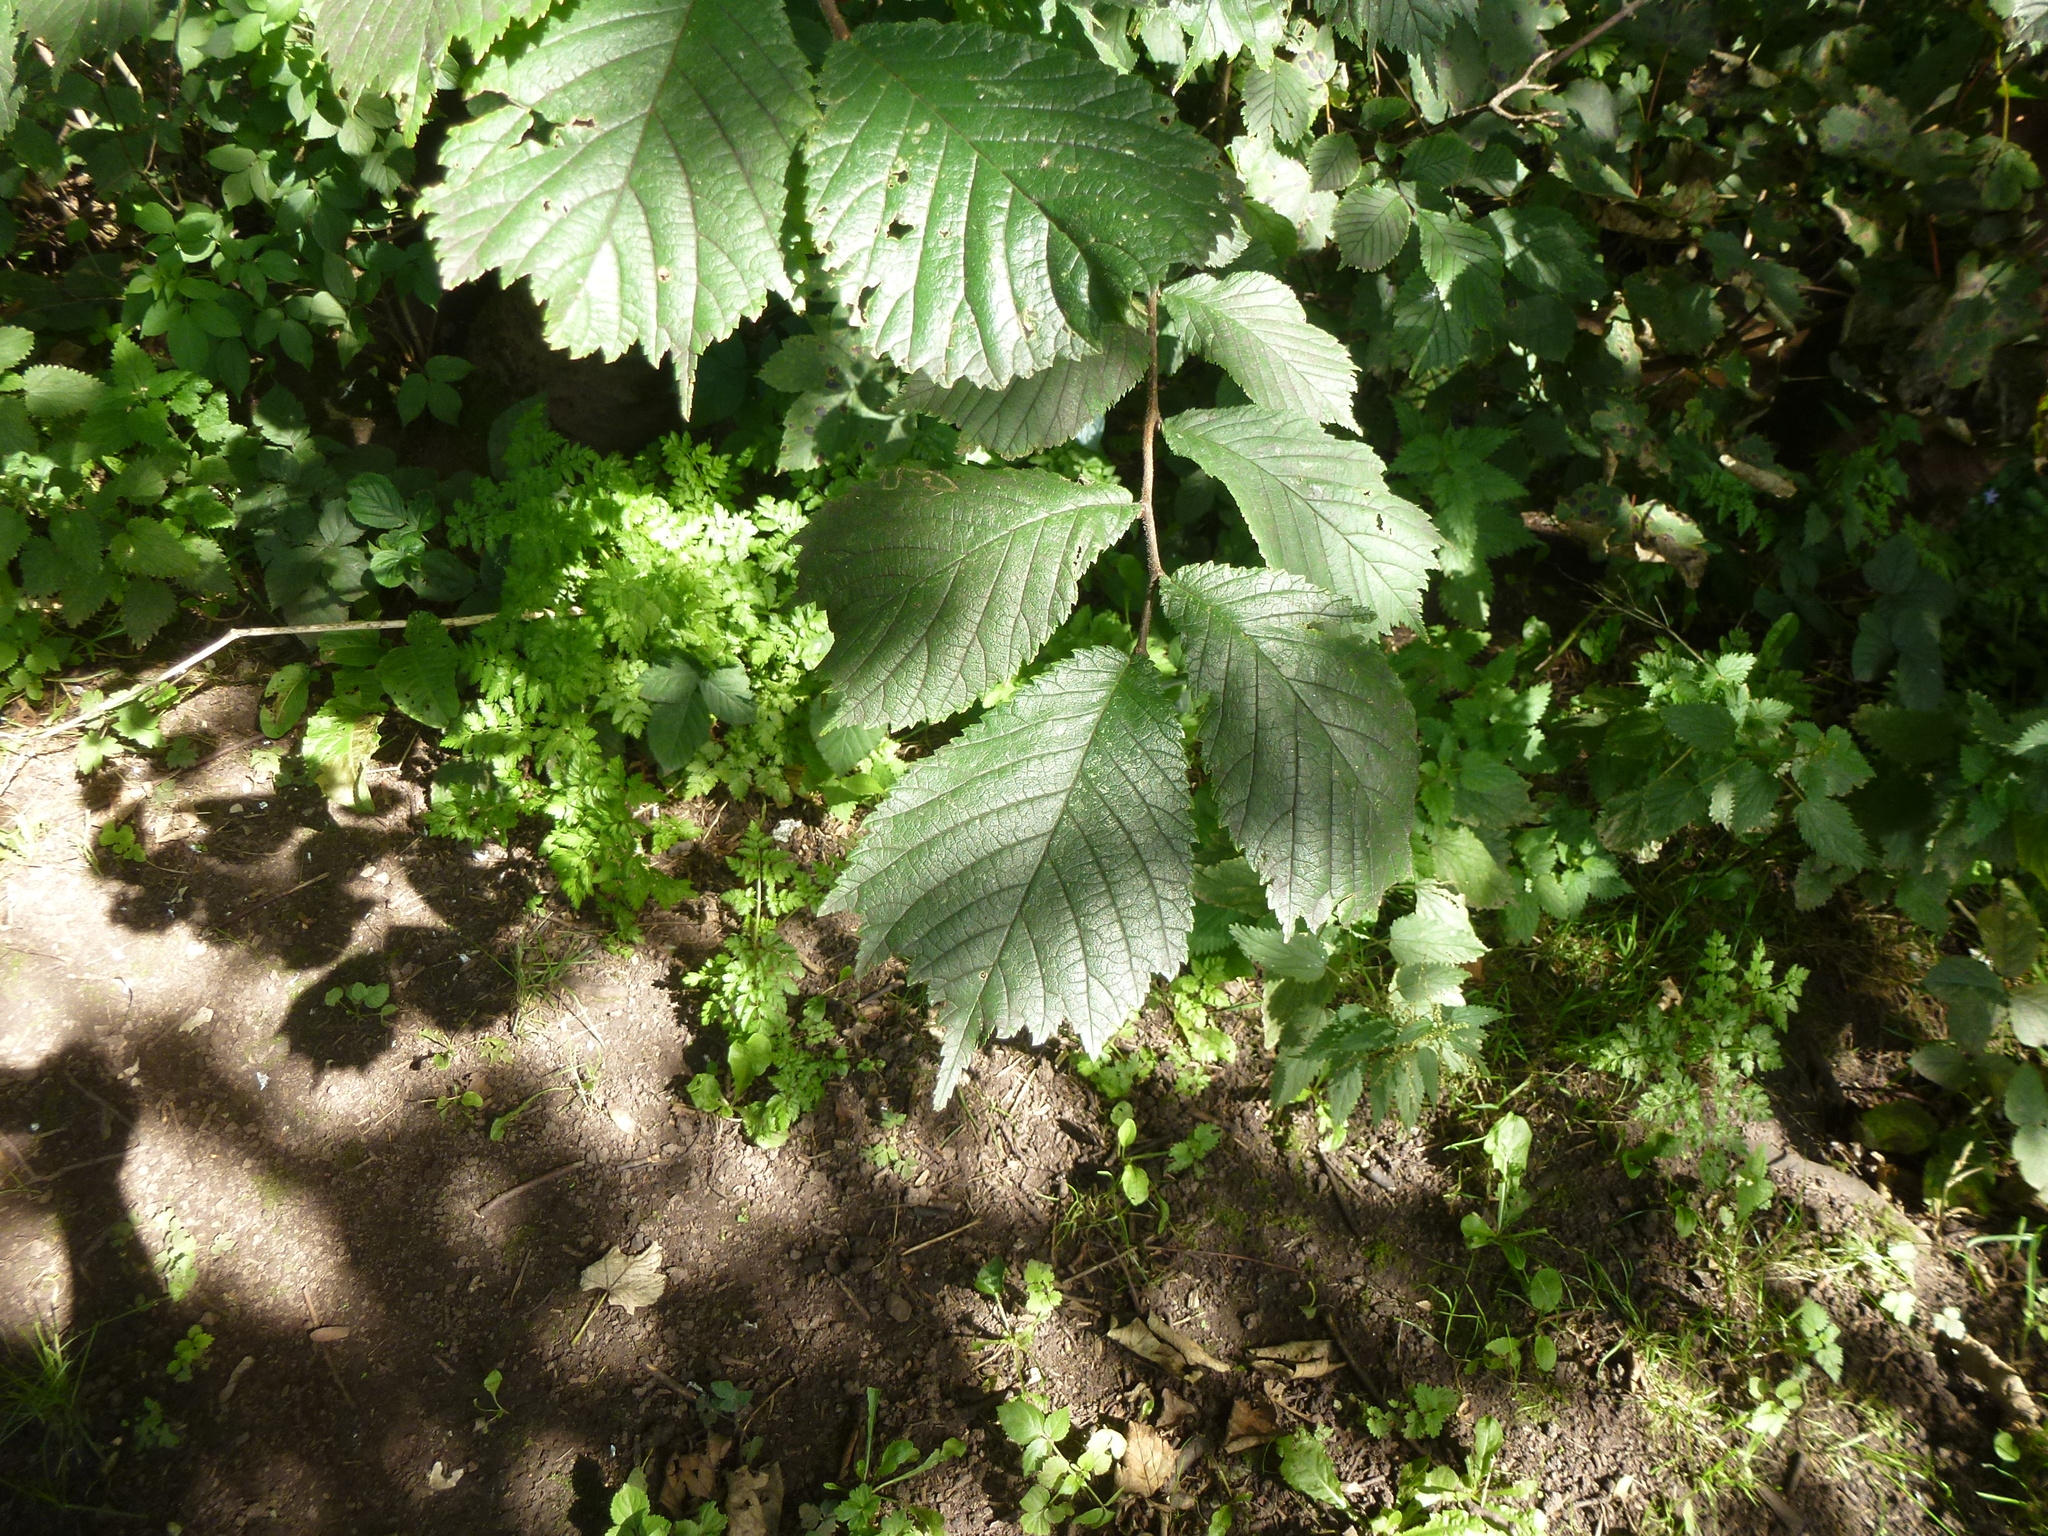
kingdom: Plantae
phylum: Tracheophyta
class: Magnoliopsida
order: Rosales
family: Ulmaceae
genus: Ulmus
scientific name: Ulmus glabra
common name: Wych elm
